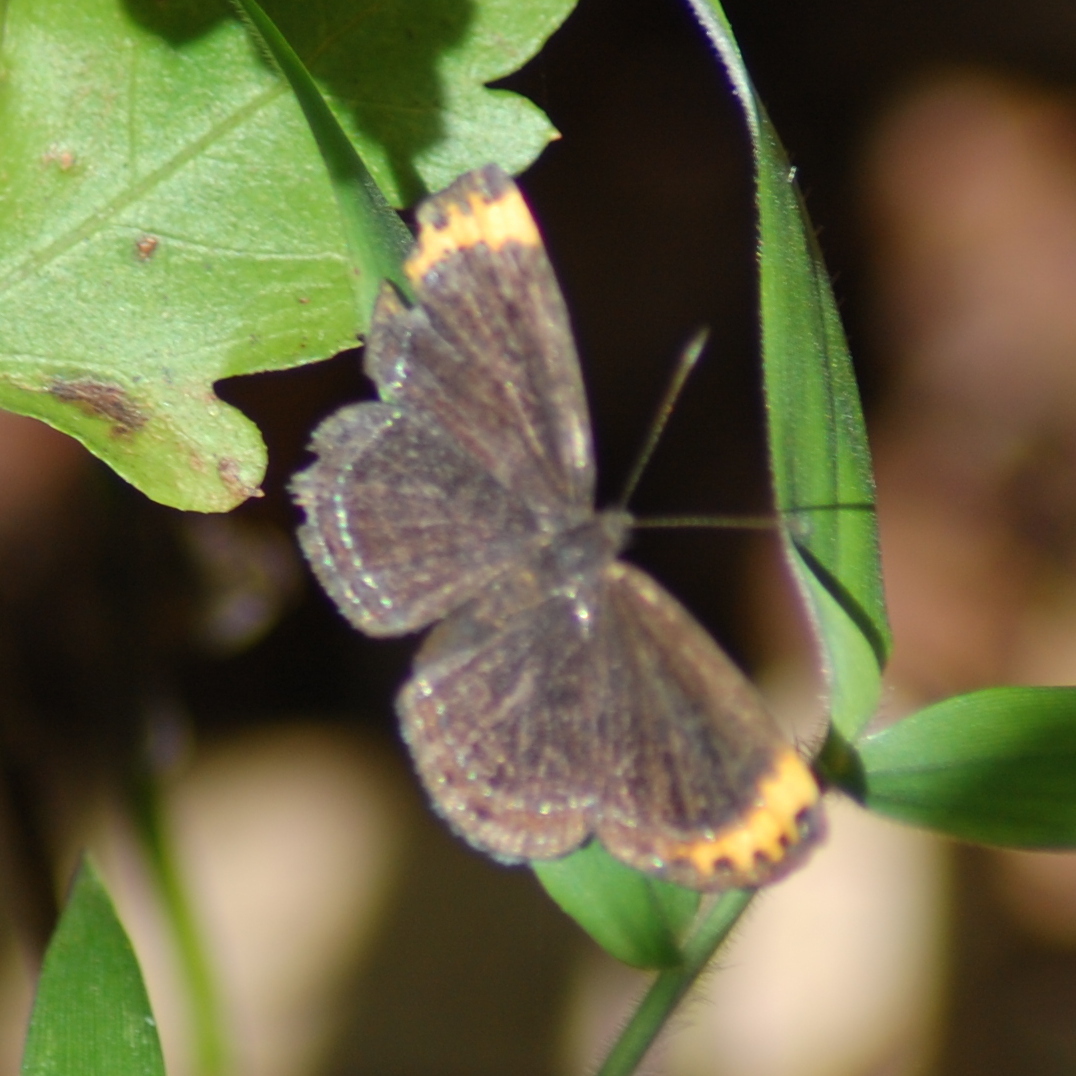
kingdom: Animalia
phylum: Arthropoda
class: Insecta
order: Lepidoptera
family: Riodinidae
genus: Nelone
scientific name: Nelone cadmeis
